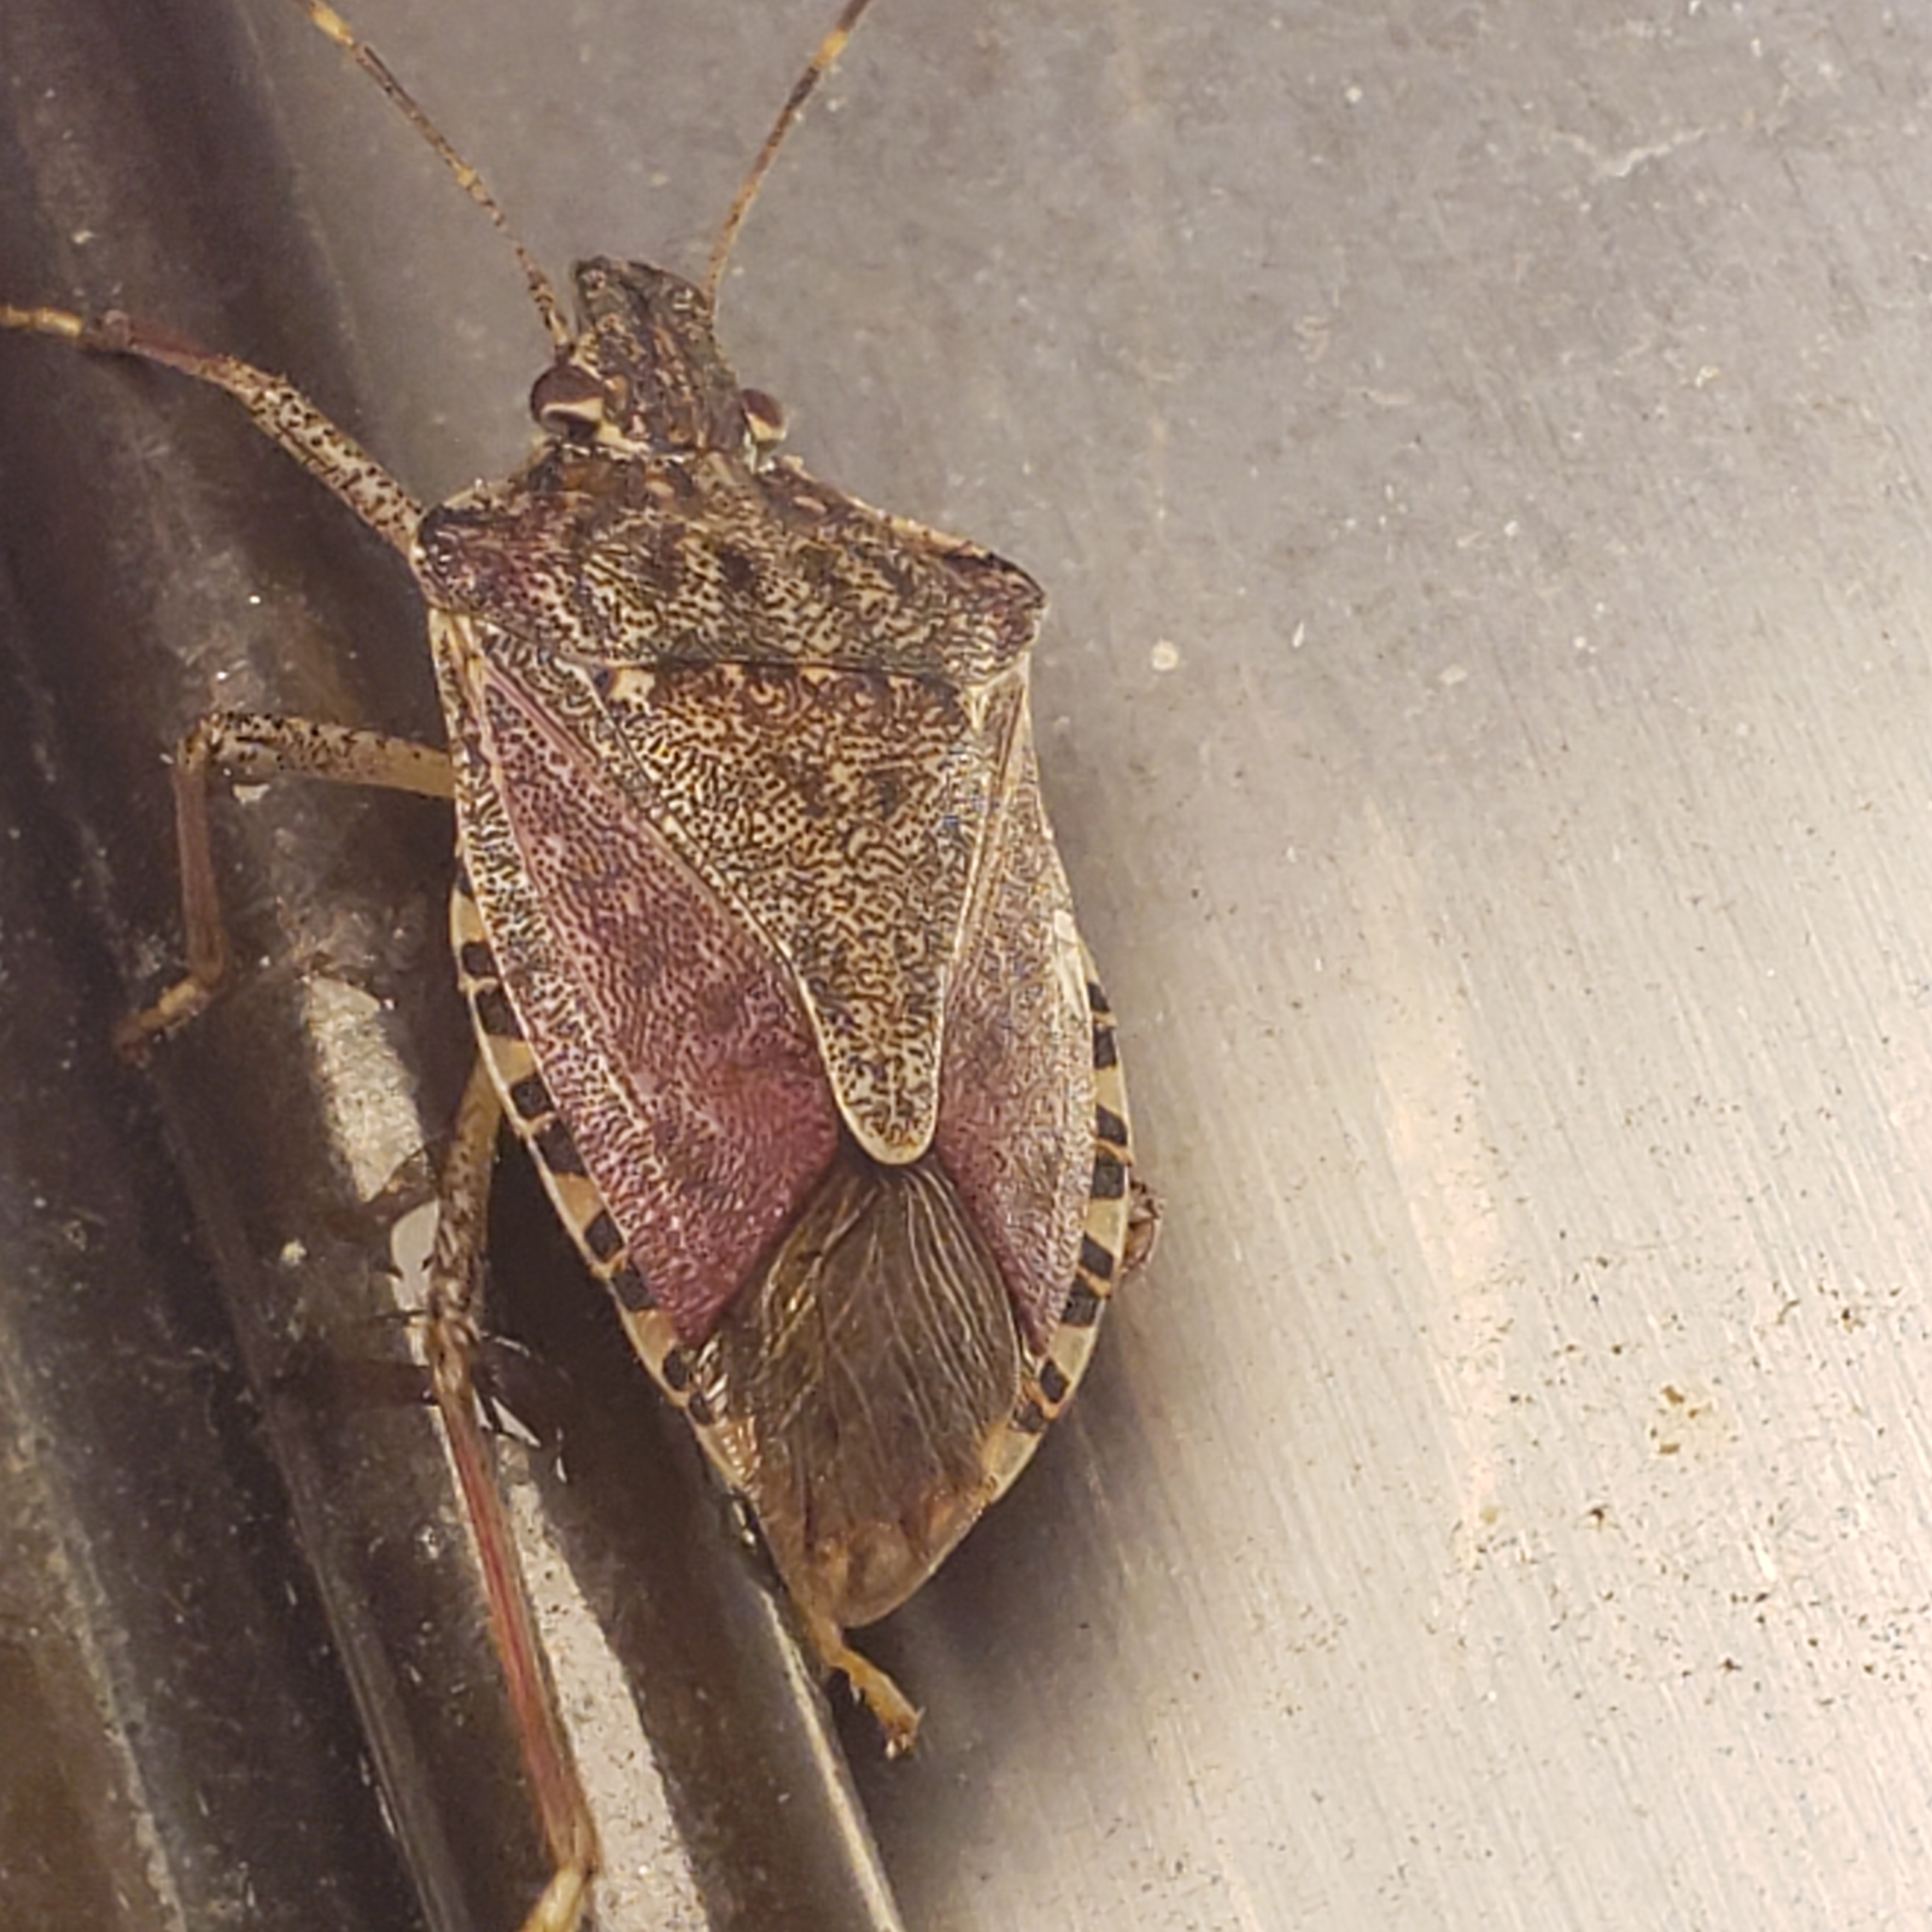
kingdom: Animalia
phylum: Arthropoda
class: Insecta
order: Hemiptera
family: Pentatomidae
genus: Halyomorpha
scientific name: Halyomorpha halys
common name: Brown marmorated stink bug
